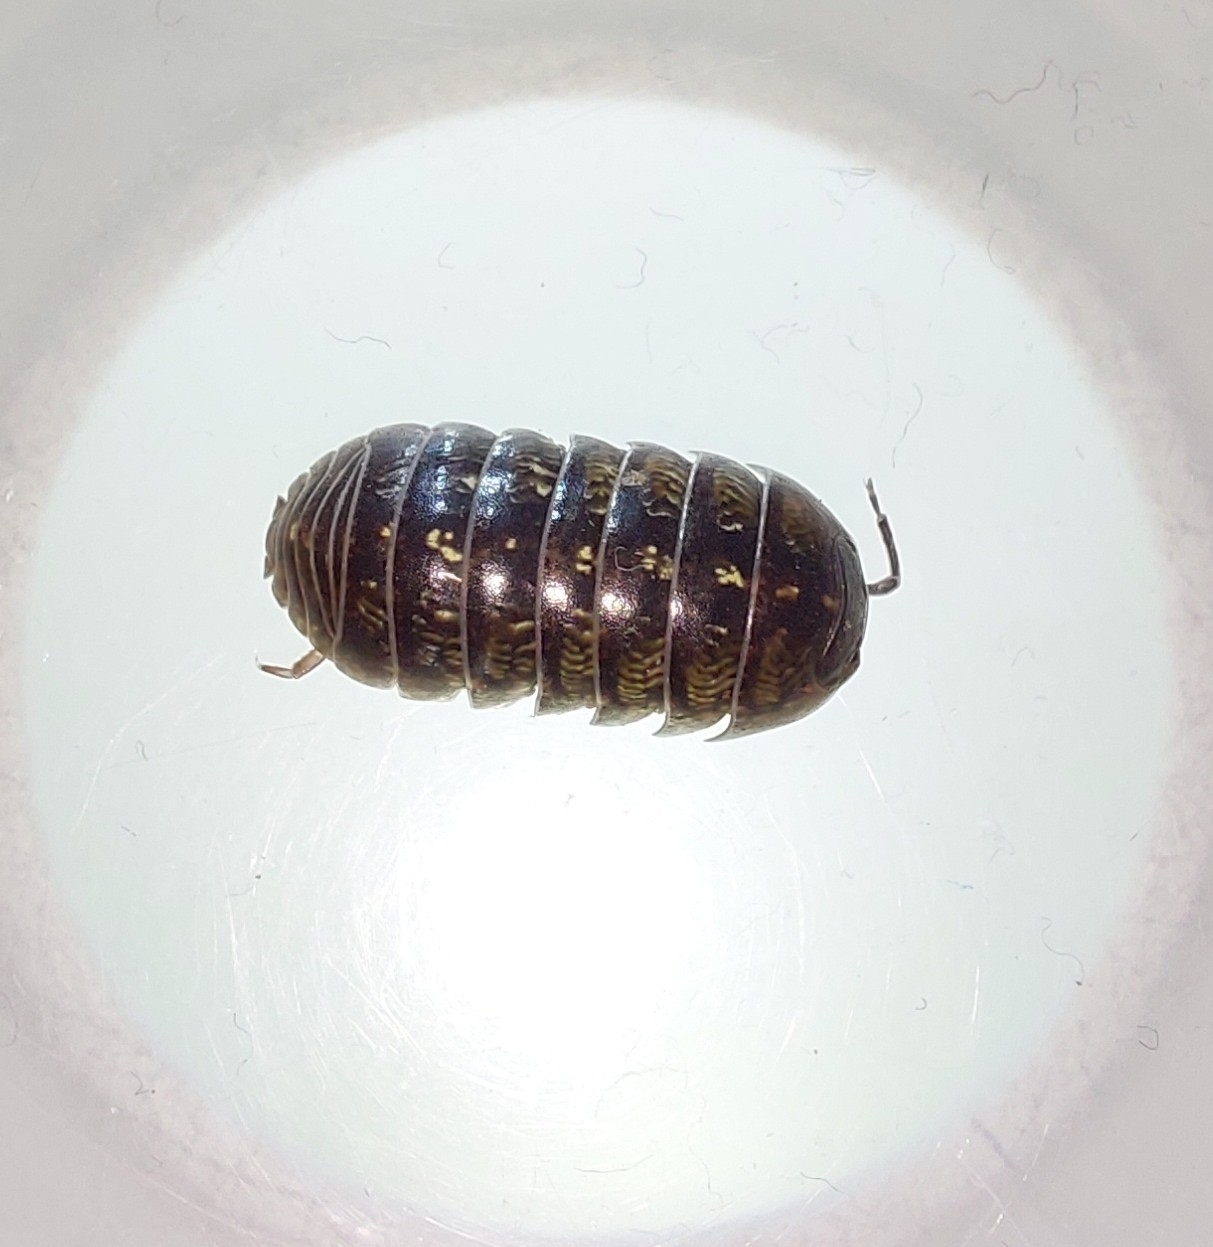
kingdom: Animalia
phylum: Arthropoda
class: Malacostraca
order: Isopoda
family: Armadillidiidae
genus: Armadillidium
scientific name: Armadillidium vulgare
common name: Common pill woodlouse
